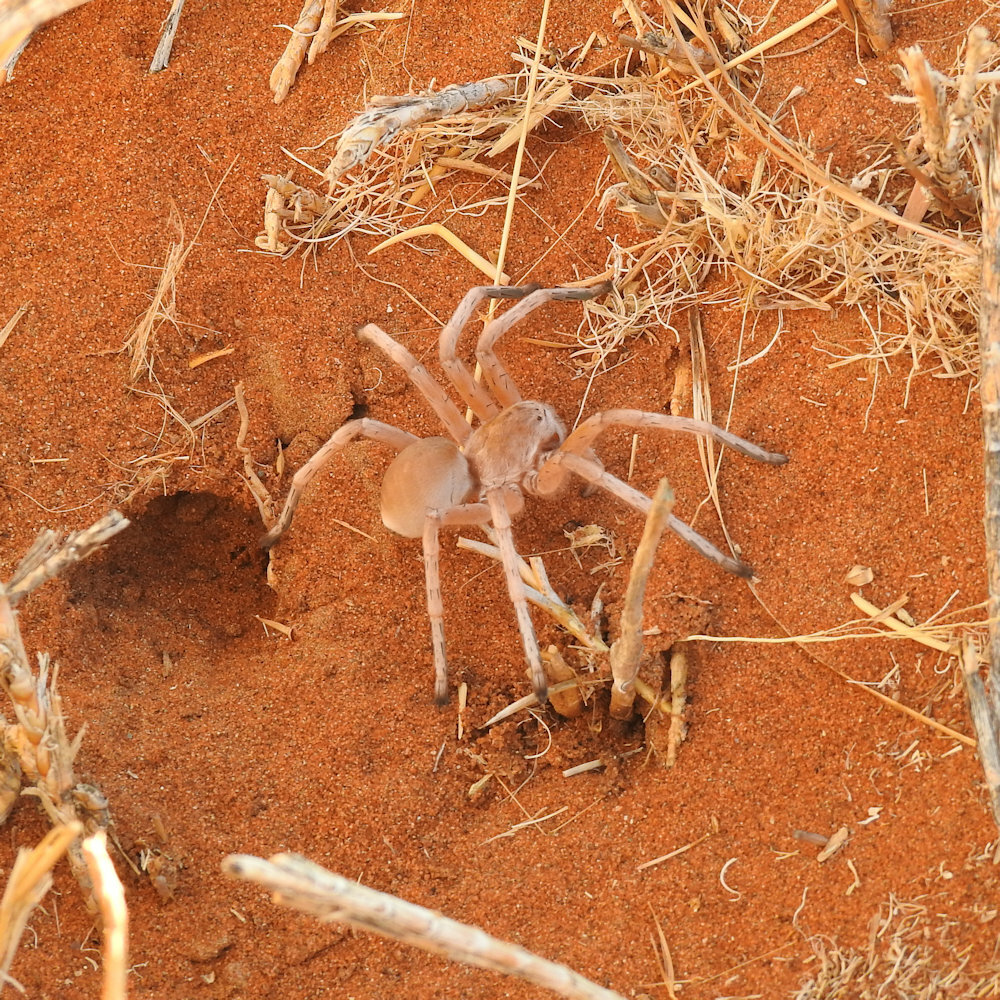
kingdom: Animalia
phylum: Arthropoda
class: Arachnida
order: Araneae
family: Sparassidae
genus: Leucorchestris
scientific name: Leucorchestris arenicola
